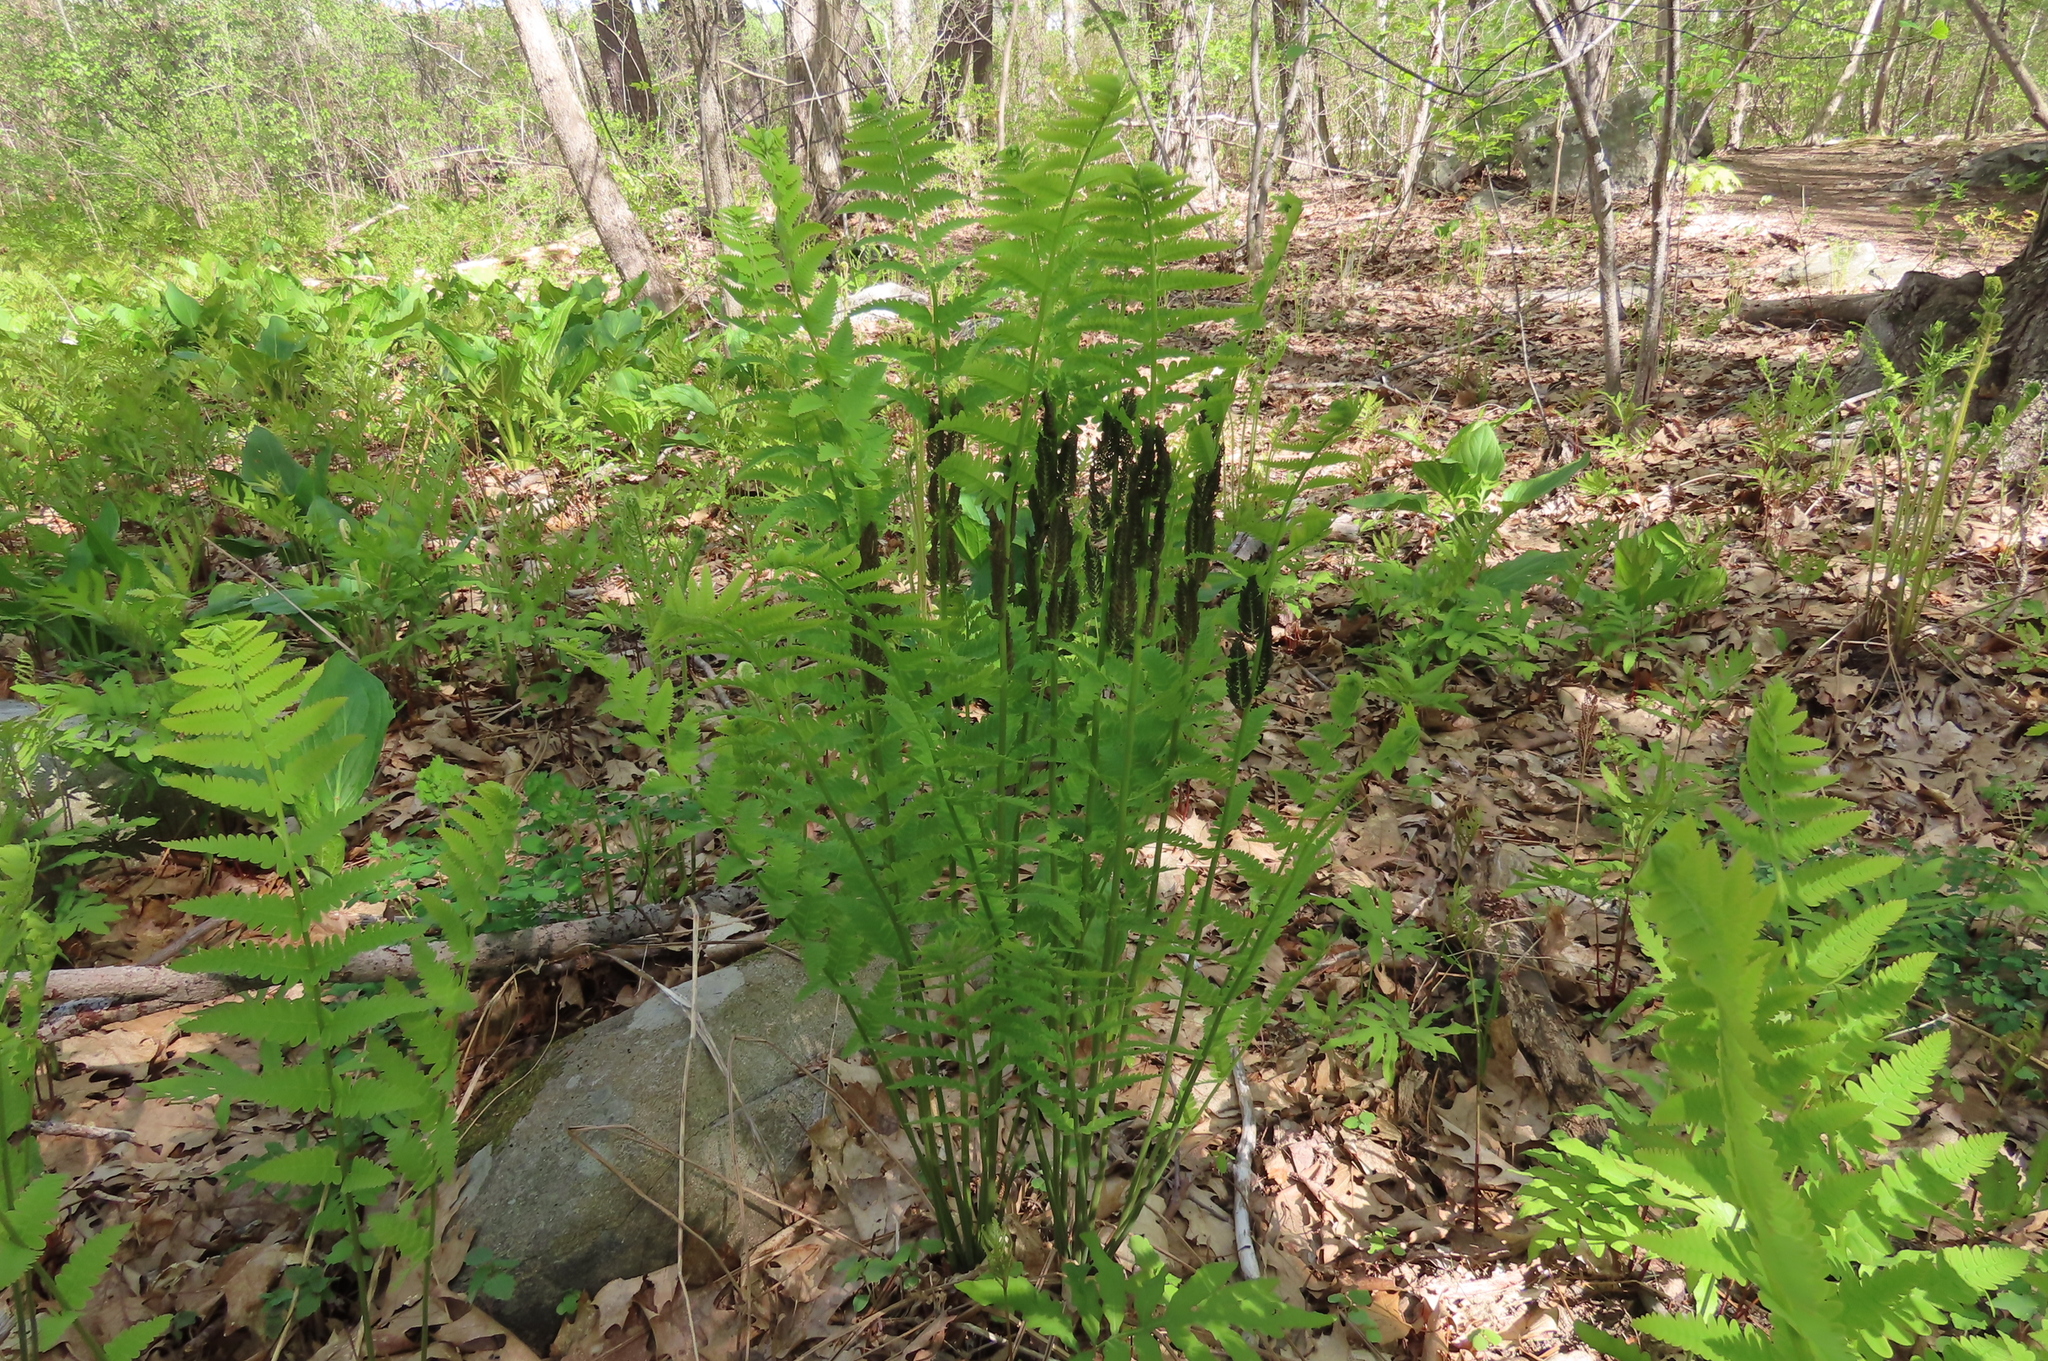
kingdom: Plantae
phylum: Tracheophyta
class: Polypodiopsida
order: Osmundales
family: Osmundaceae
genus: Claytosmunda
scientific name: Claytosmunda claytoniana
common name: Clayton's fern
